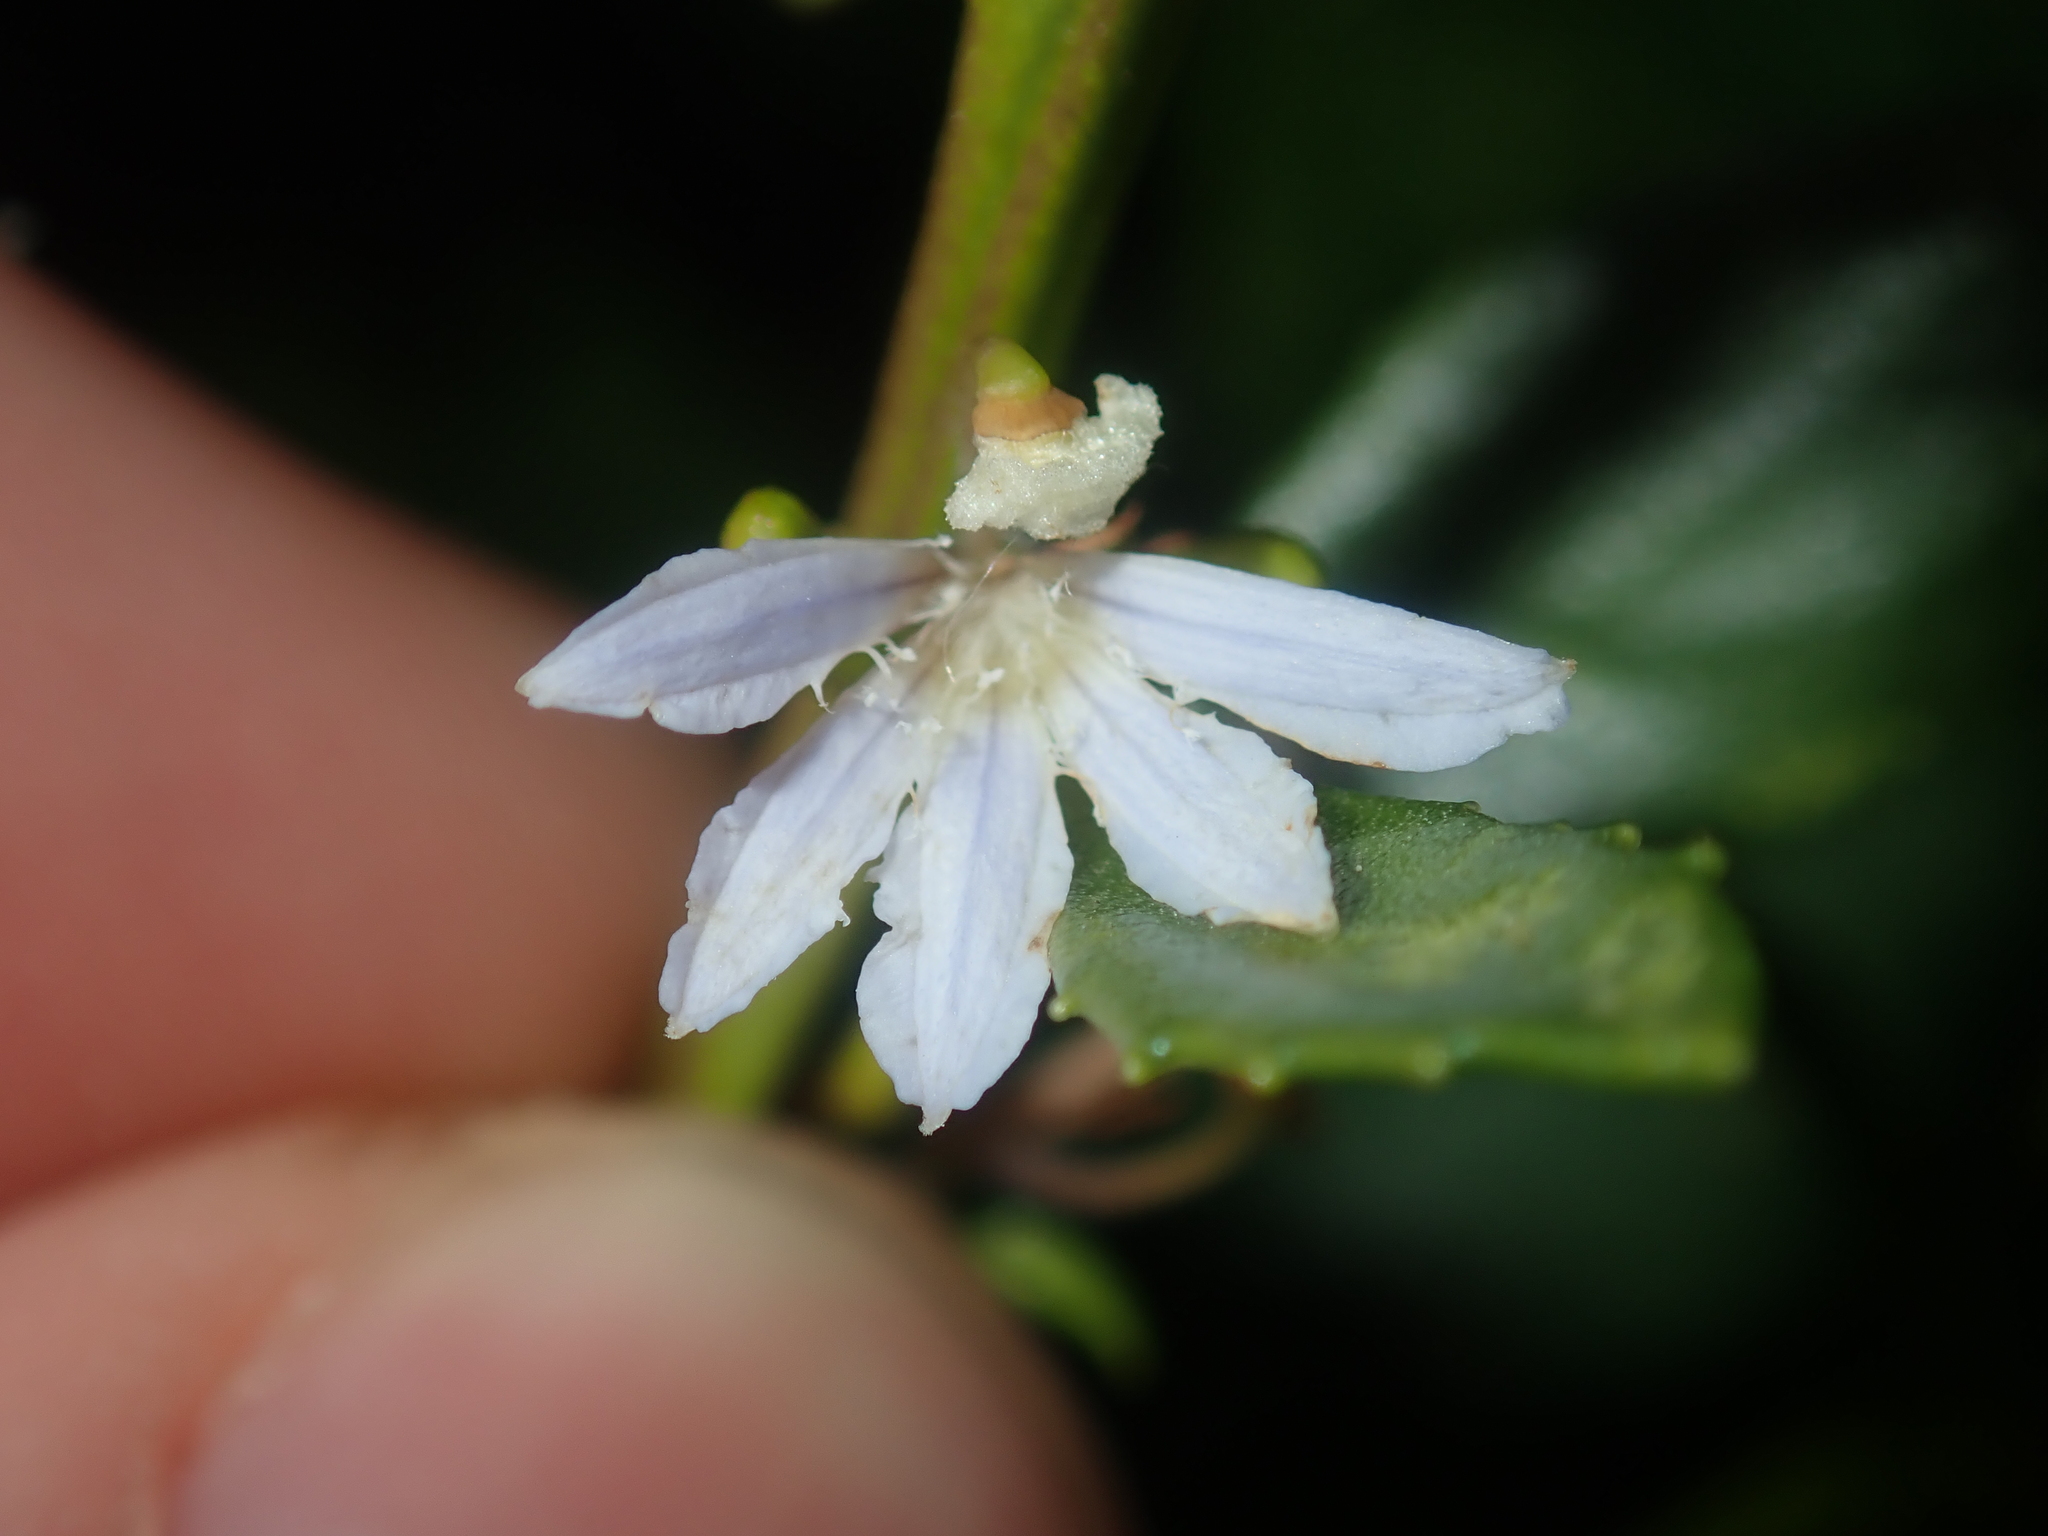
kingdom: Plantae
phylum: Tracheophyta
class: Magnoliopsida
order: Asterales
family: Goodeniaceae
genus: Scaevola
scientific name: Scaevola crassifolia
